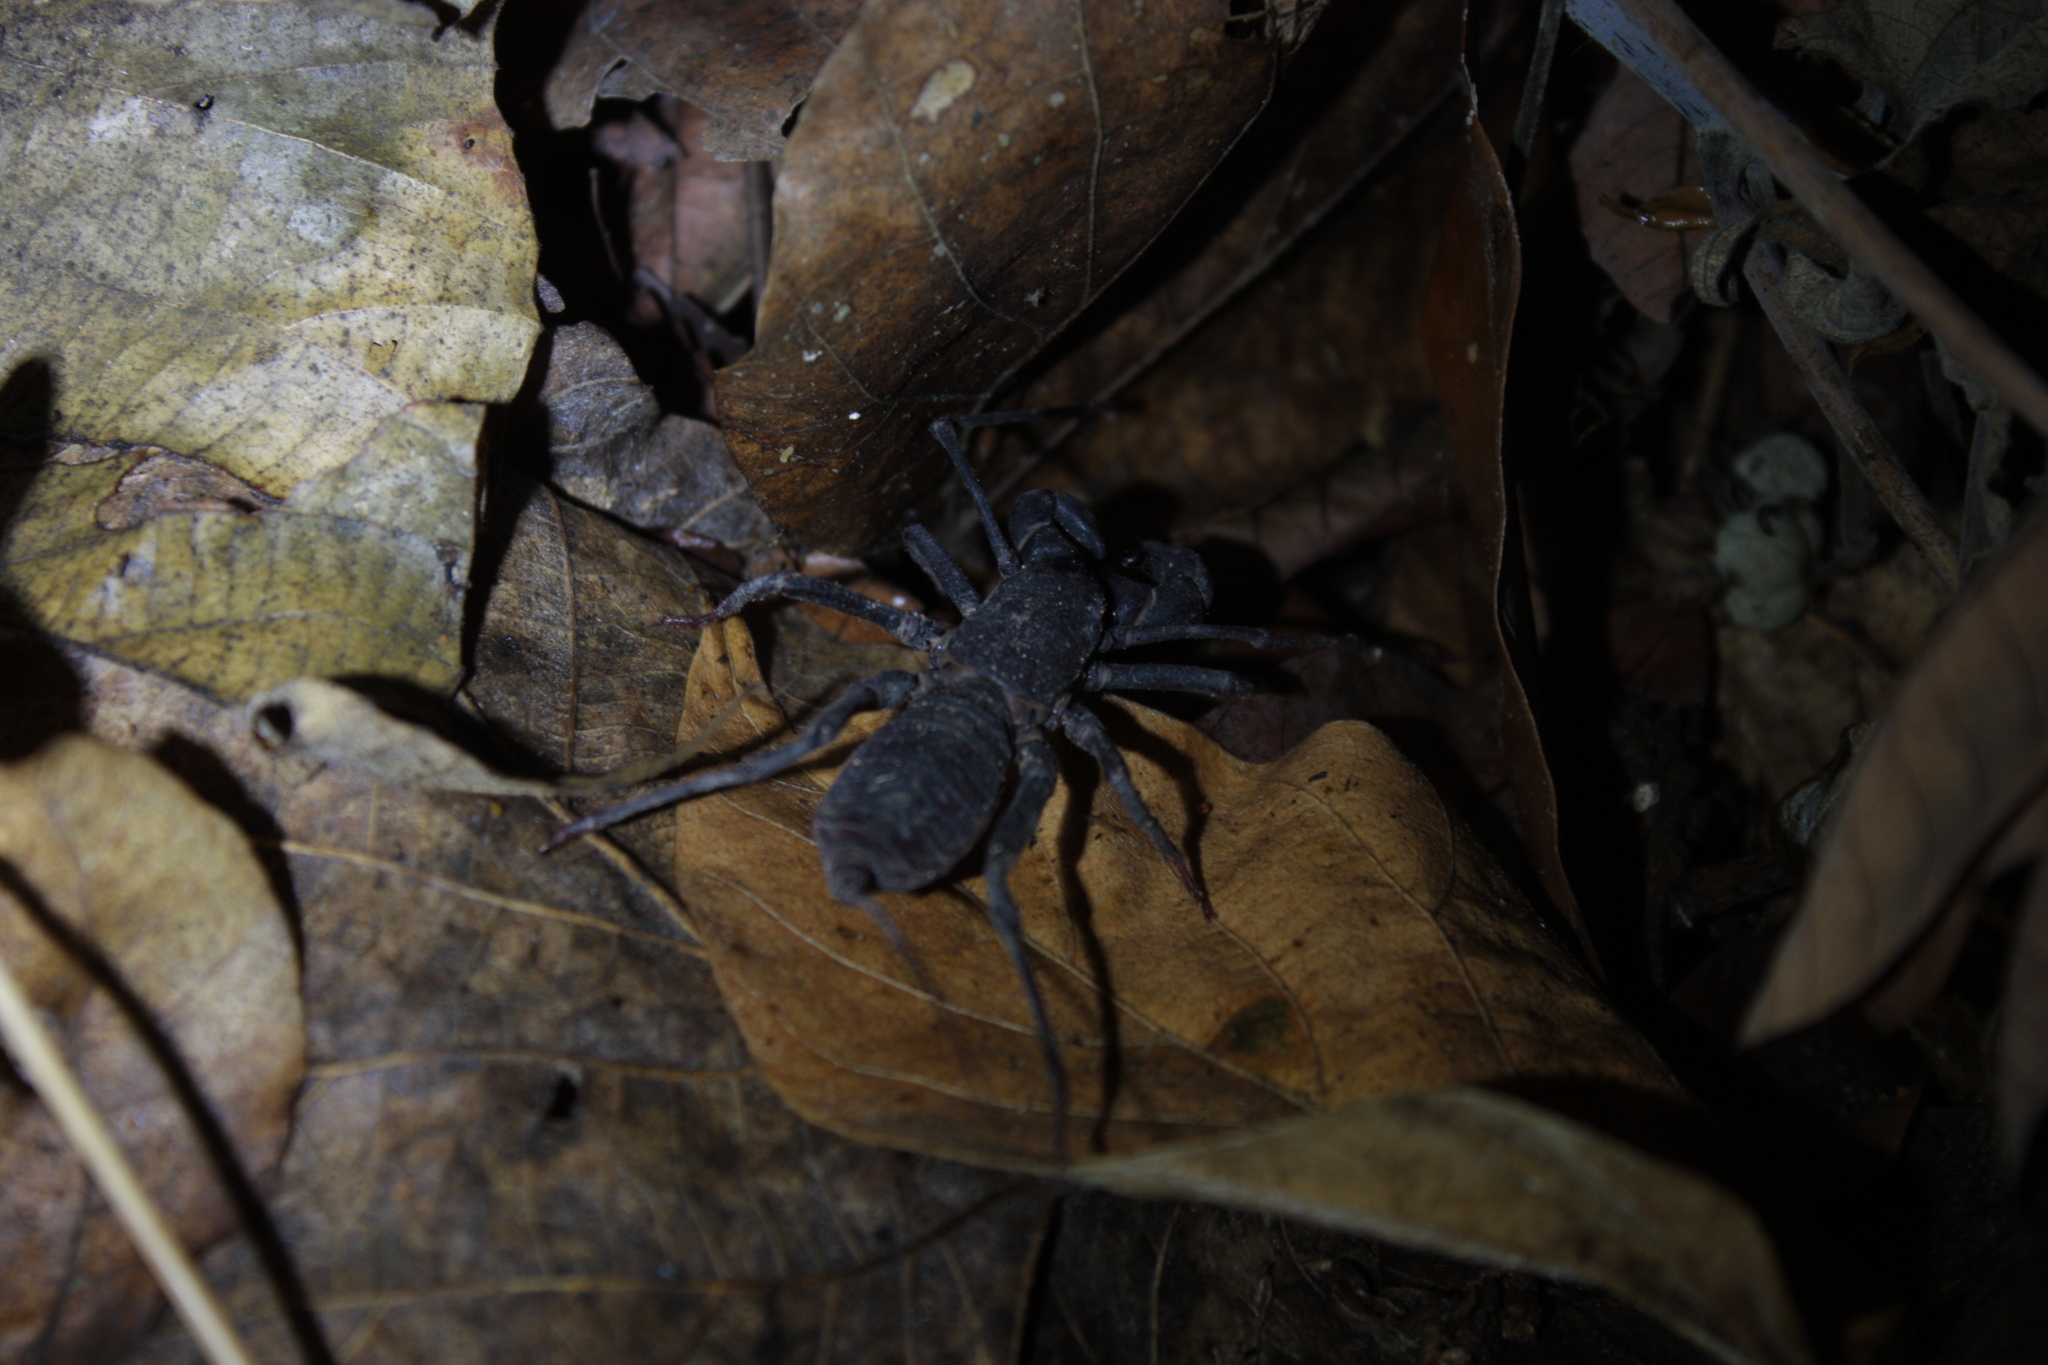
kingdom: Animalia
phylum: Arthropoda
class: Arachnida
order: Uropygi
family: Thelyphonidae
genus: Typopeltis
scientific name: Typopeltis crucifer
